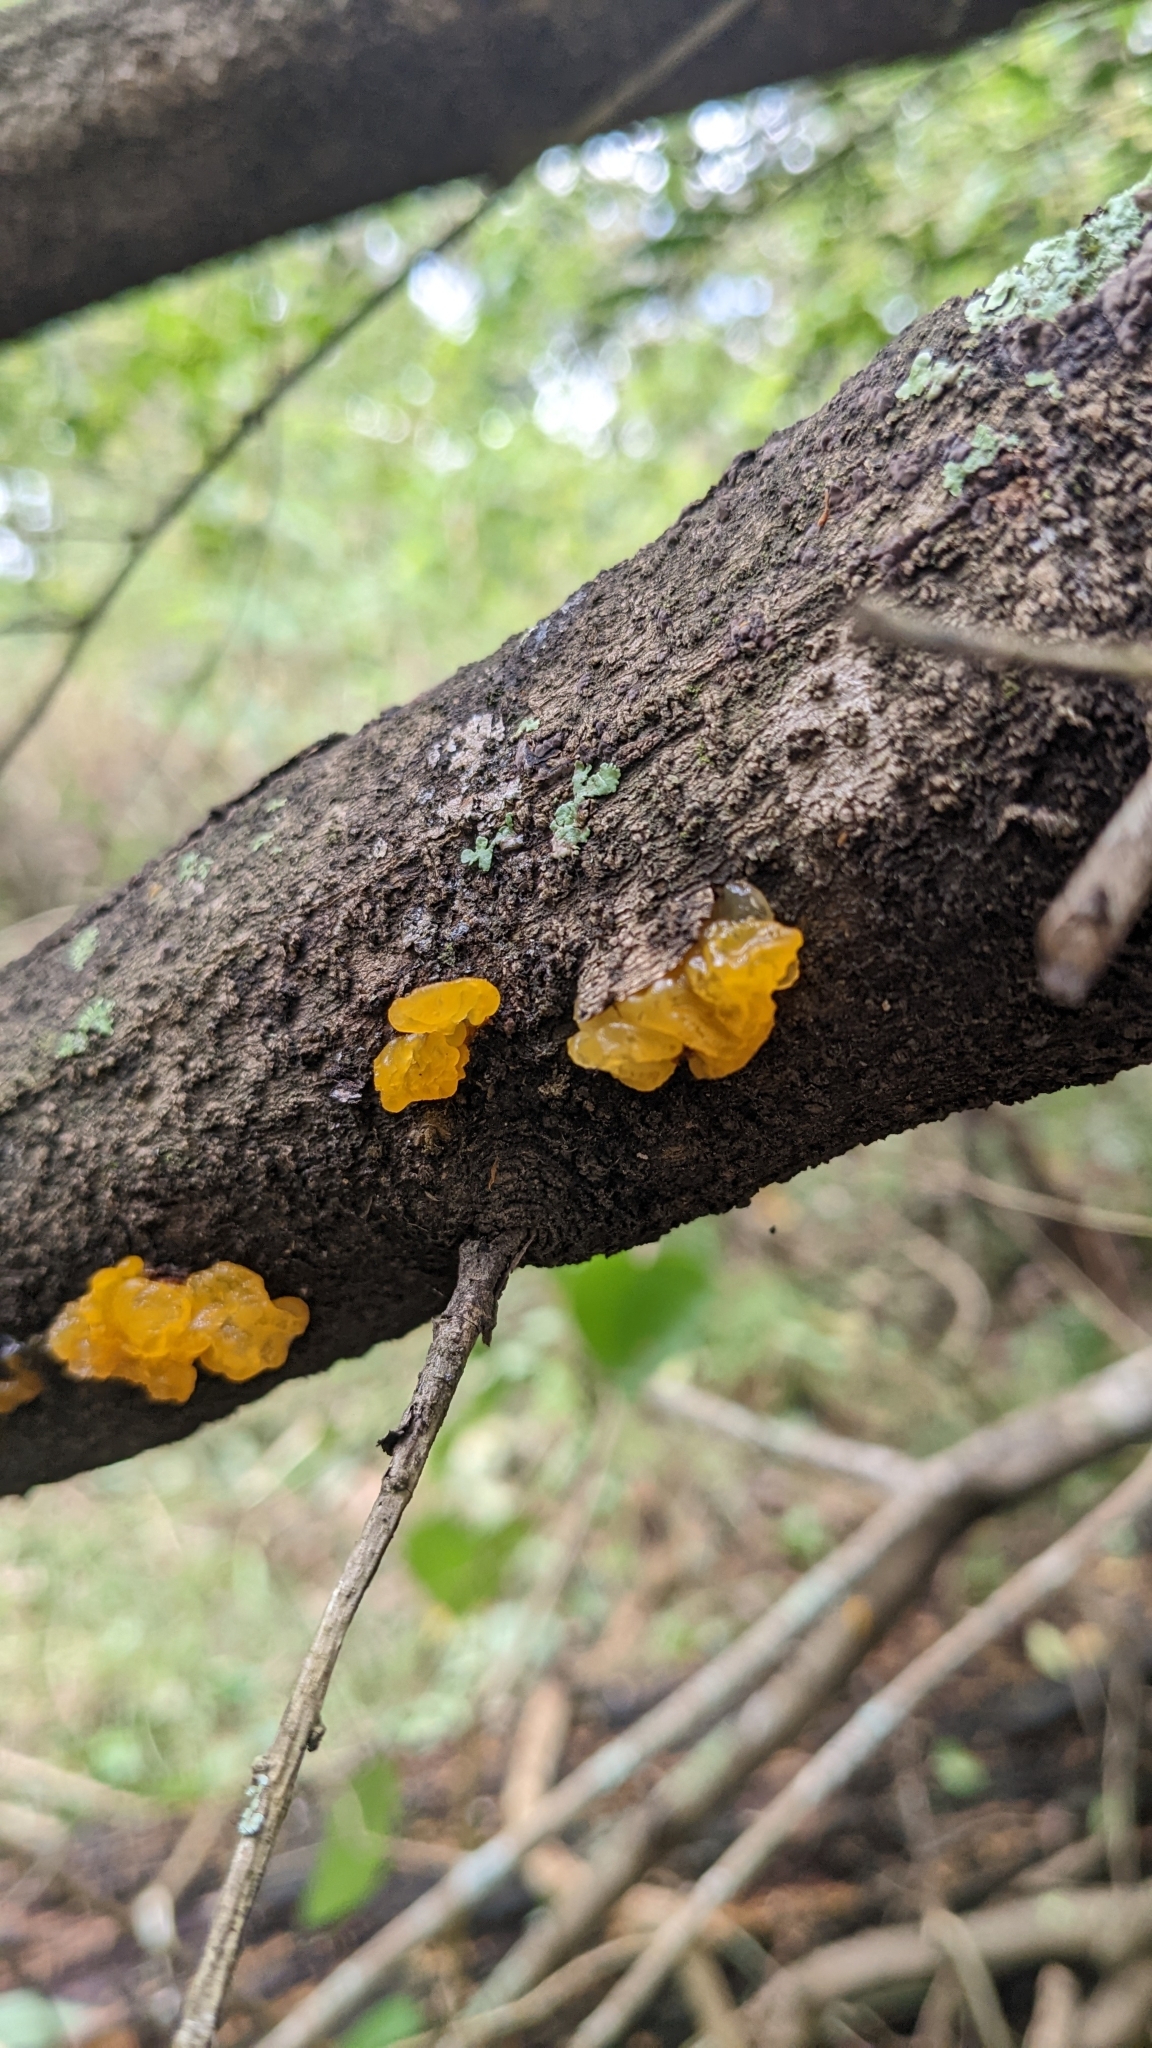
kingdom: Fungi
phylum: Basidiomycota
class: Tremellomycetes
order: Tremellales
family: Tremellaceae
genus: Tremella
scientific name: Tremella mesenterica
